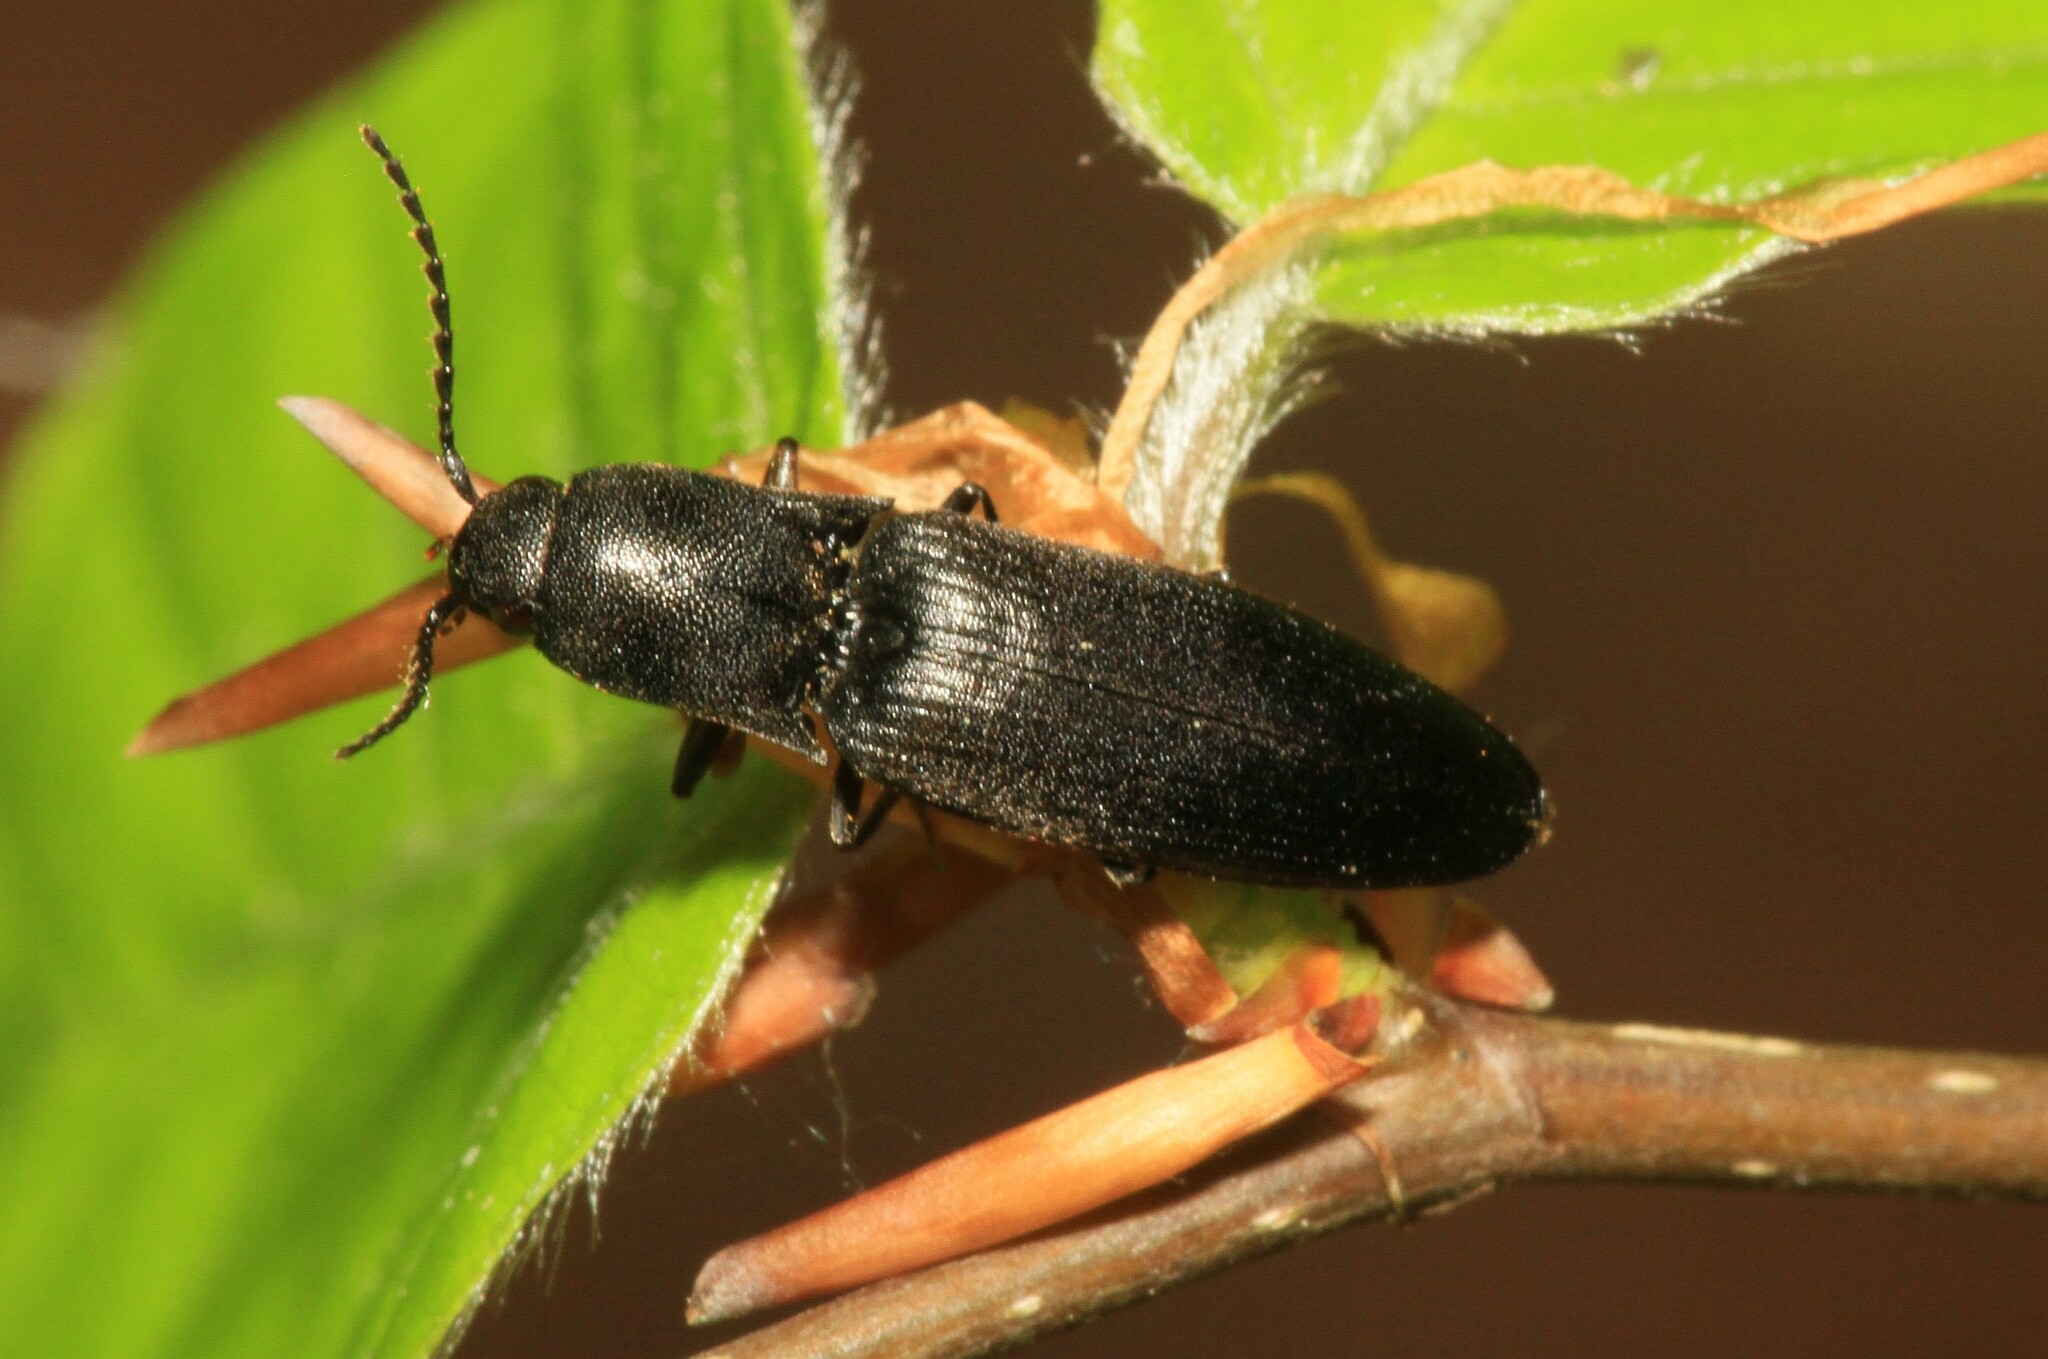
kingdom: Animalia
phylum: Arthropoda
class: Insecta
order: Coleoptera
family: Elateridae
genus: Ectinus
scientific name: Ectinus aterrimus
